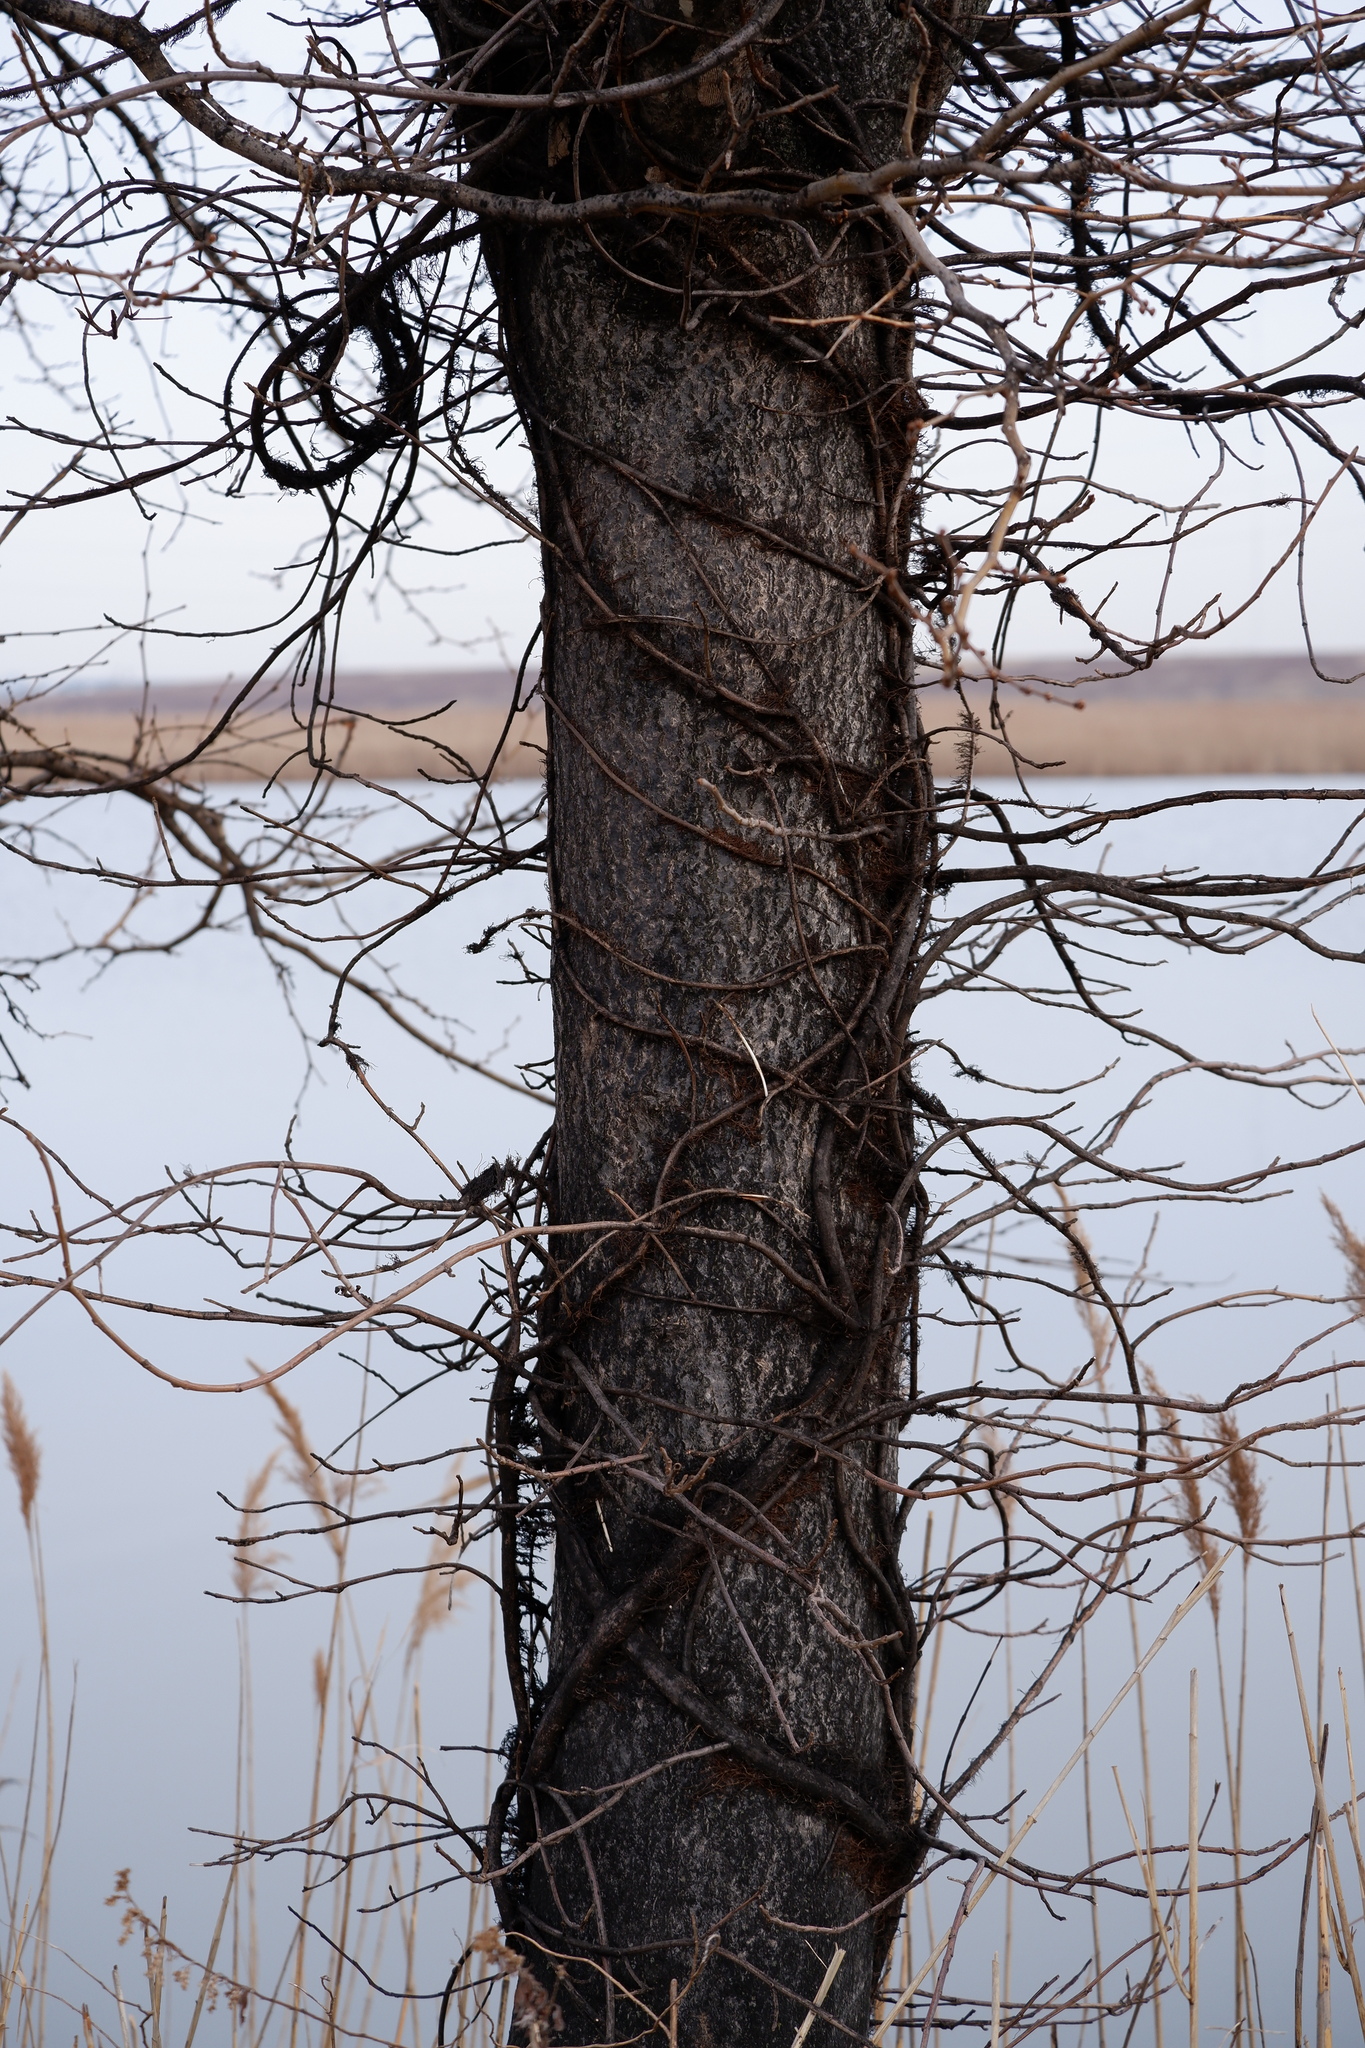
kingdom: Plantae
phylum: Tracheophyta
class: Magnoliopsida
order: Sapindales
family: Anacardiaceae
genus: Toxicodendron
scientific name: Toxicodendron radicans
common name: Poison ivy
